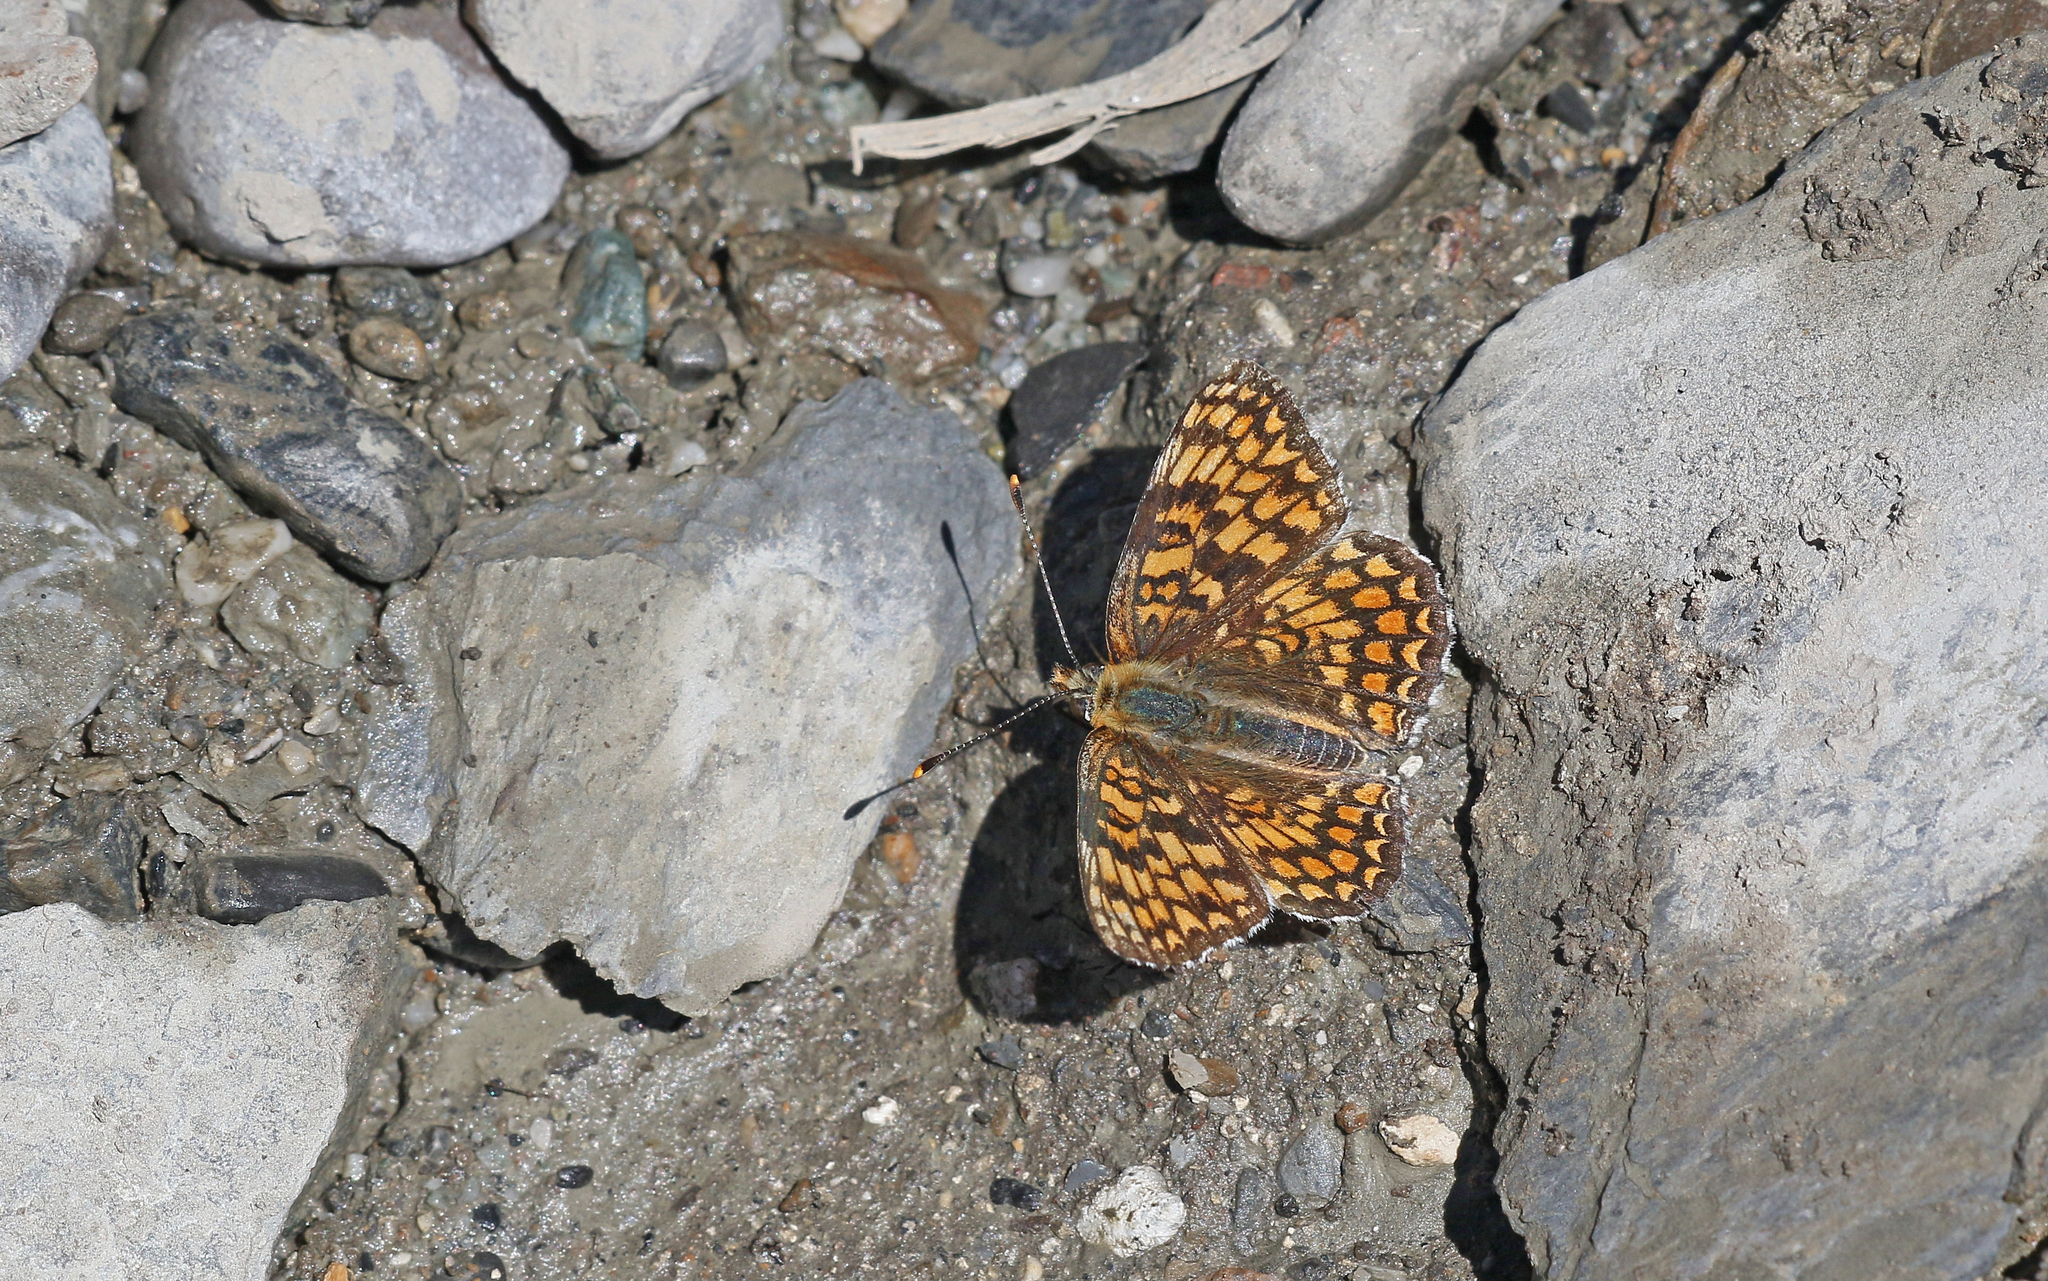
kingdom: Animalia
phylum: Arthropoda
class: Insecta
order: Lepidoptera
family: Nymphalidae
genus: Melitaea
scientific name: Melitaea phoebe
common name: Knapweed fritillary
